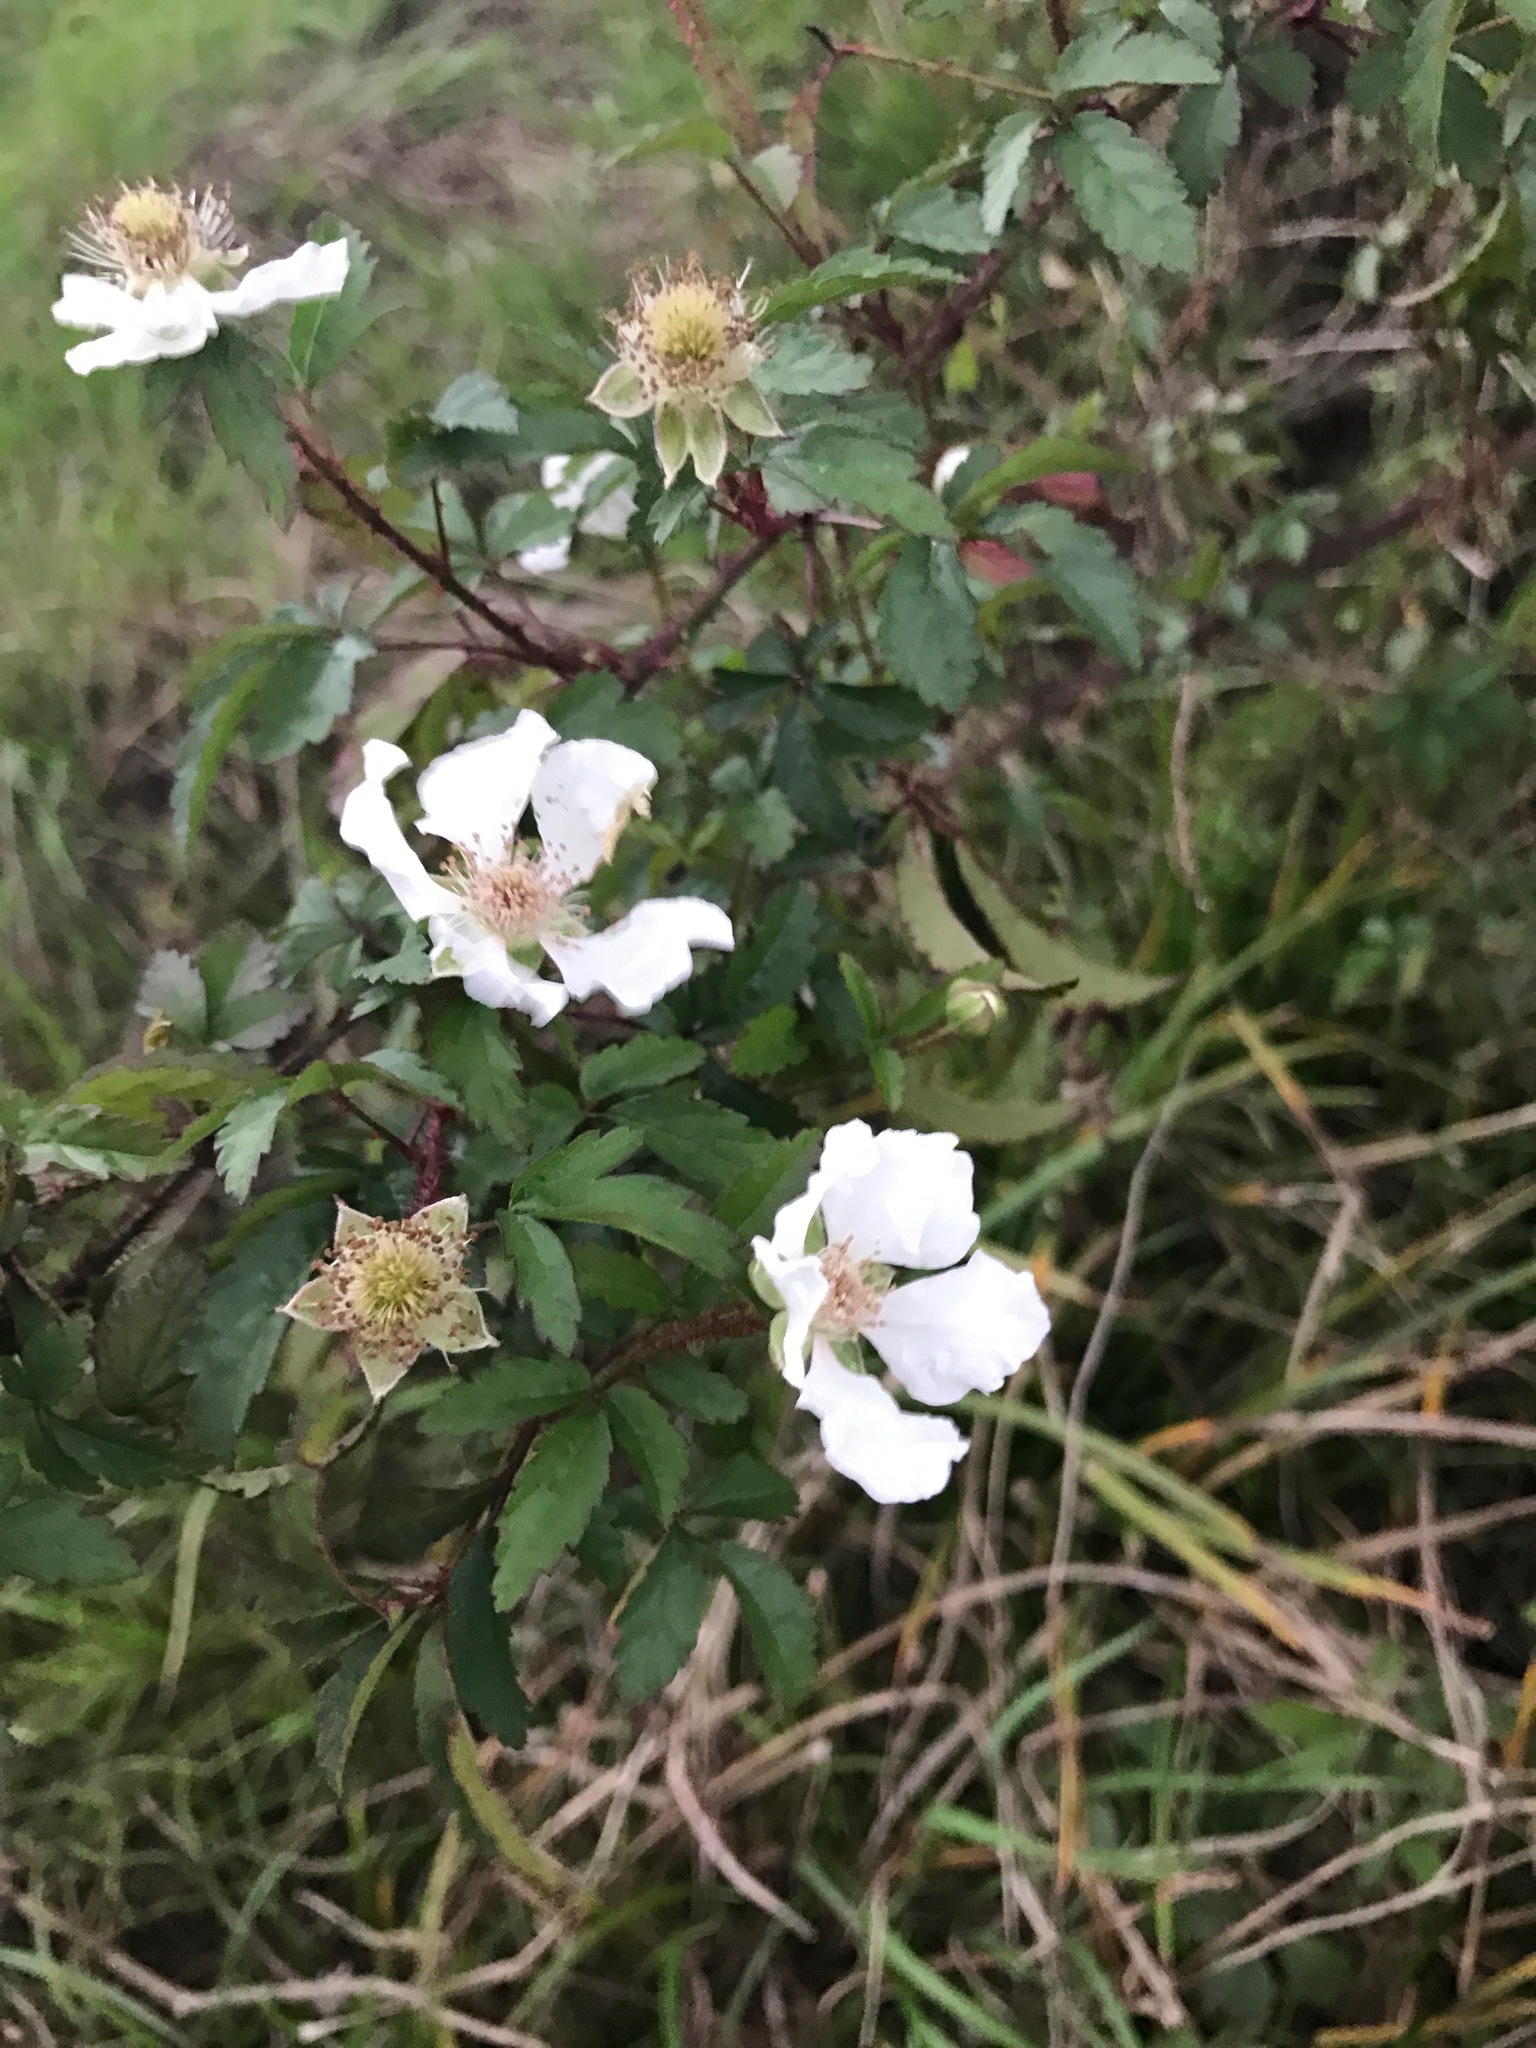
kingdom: Plantae
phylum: Tracheophyta
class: Magnoliopsida
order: Rosales
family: Rosaceae
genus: Rubus
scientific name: Rubus trivialis
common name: Southern dewberry
